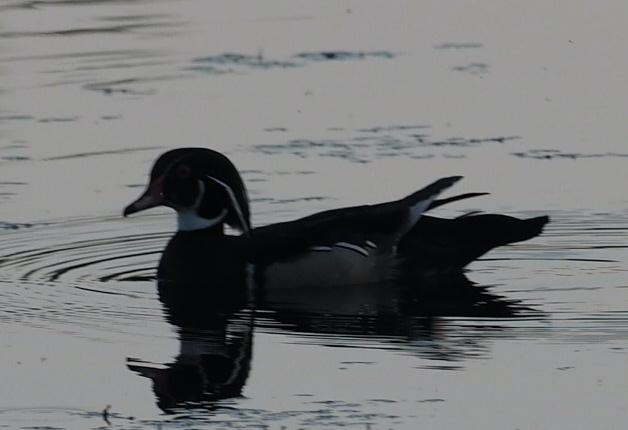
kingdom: Animalia
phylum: Chordata
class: Aves
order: Anseriformes
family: Anatidae
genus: Aix
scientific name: Aix sponsa
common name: Wood duck
